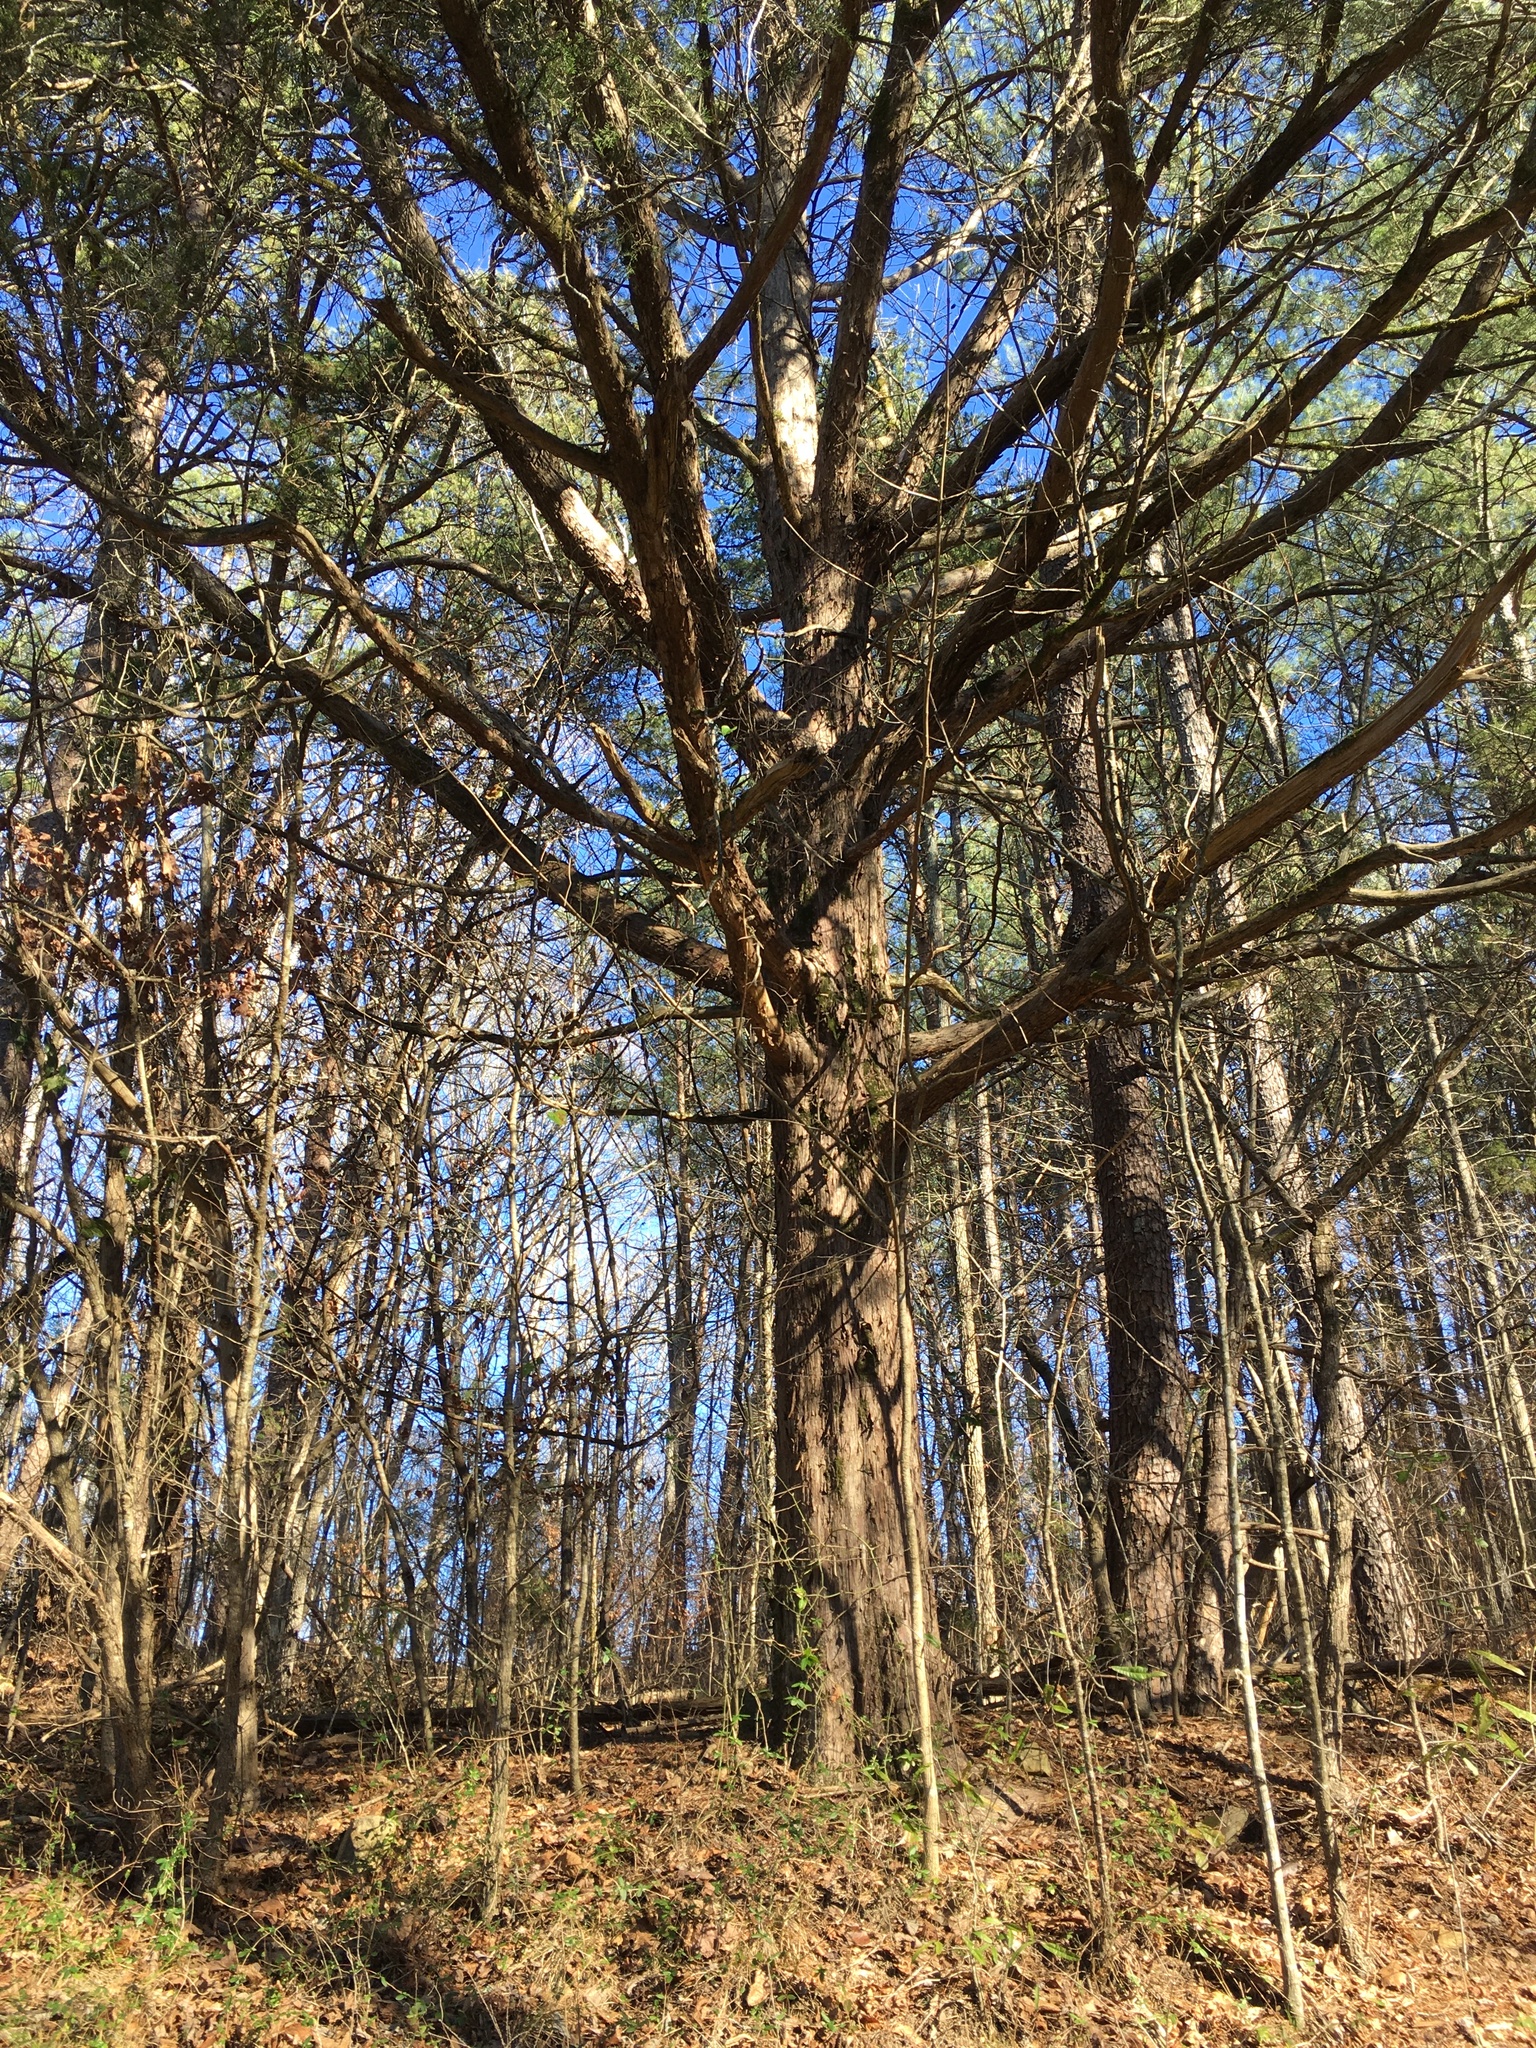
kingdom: Plantae
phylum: Tracheophyta
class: Pinopsida
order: Pinales
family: Cupressaceae
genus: Juniperus
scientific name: Juniperus virginiana
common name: Red juniper
